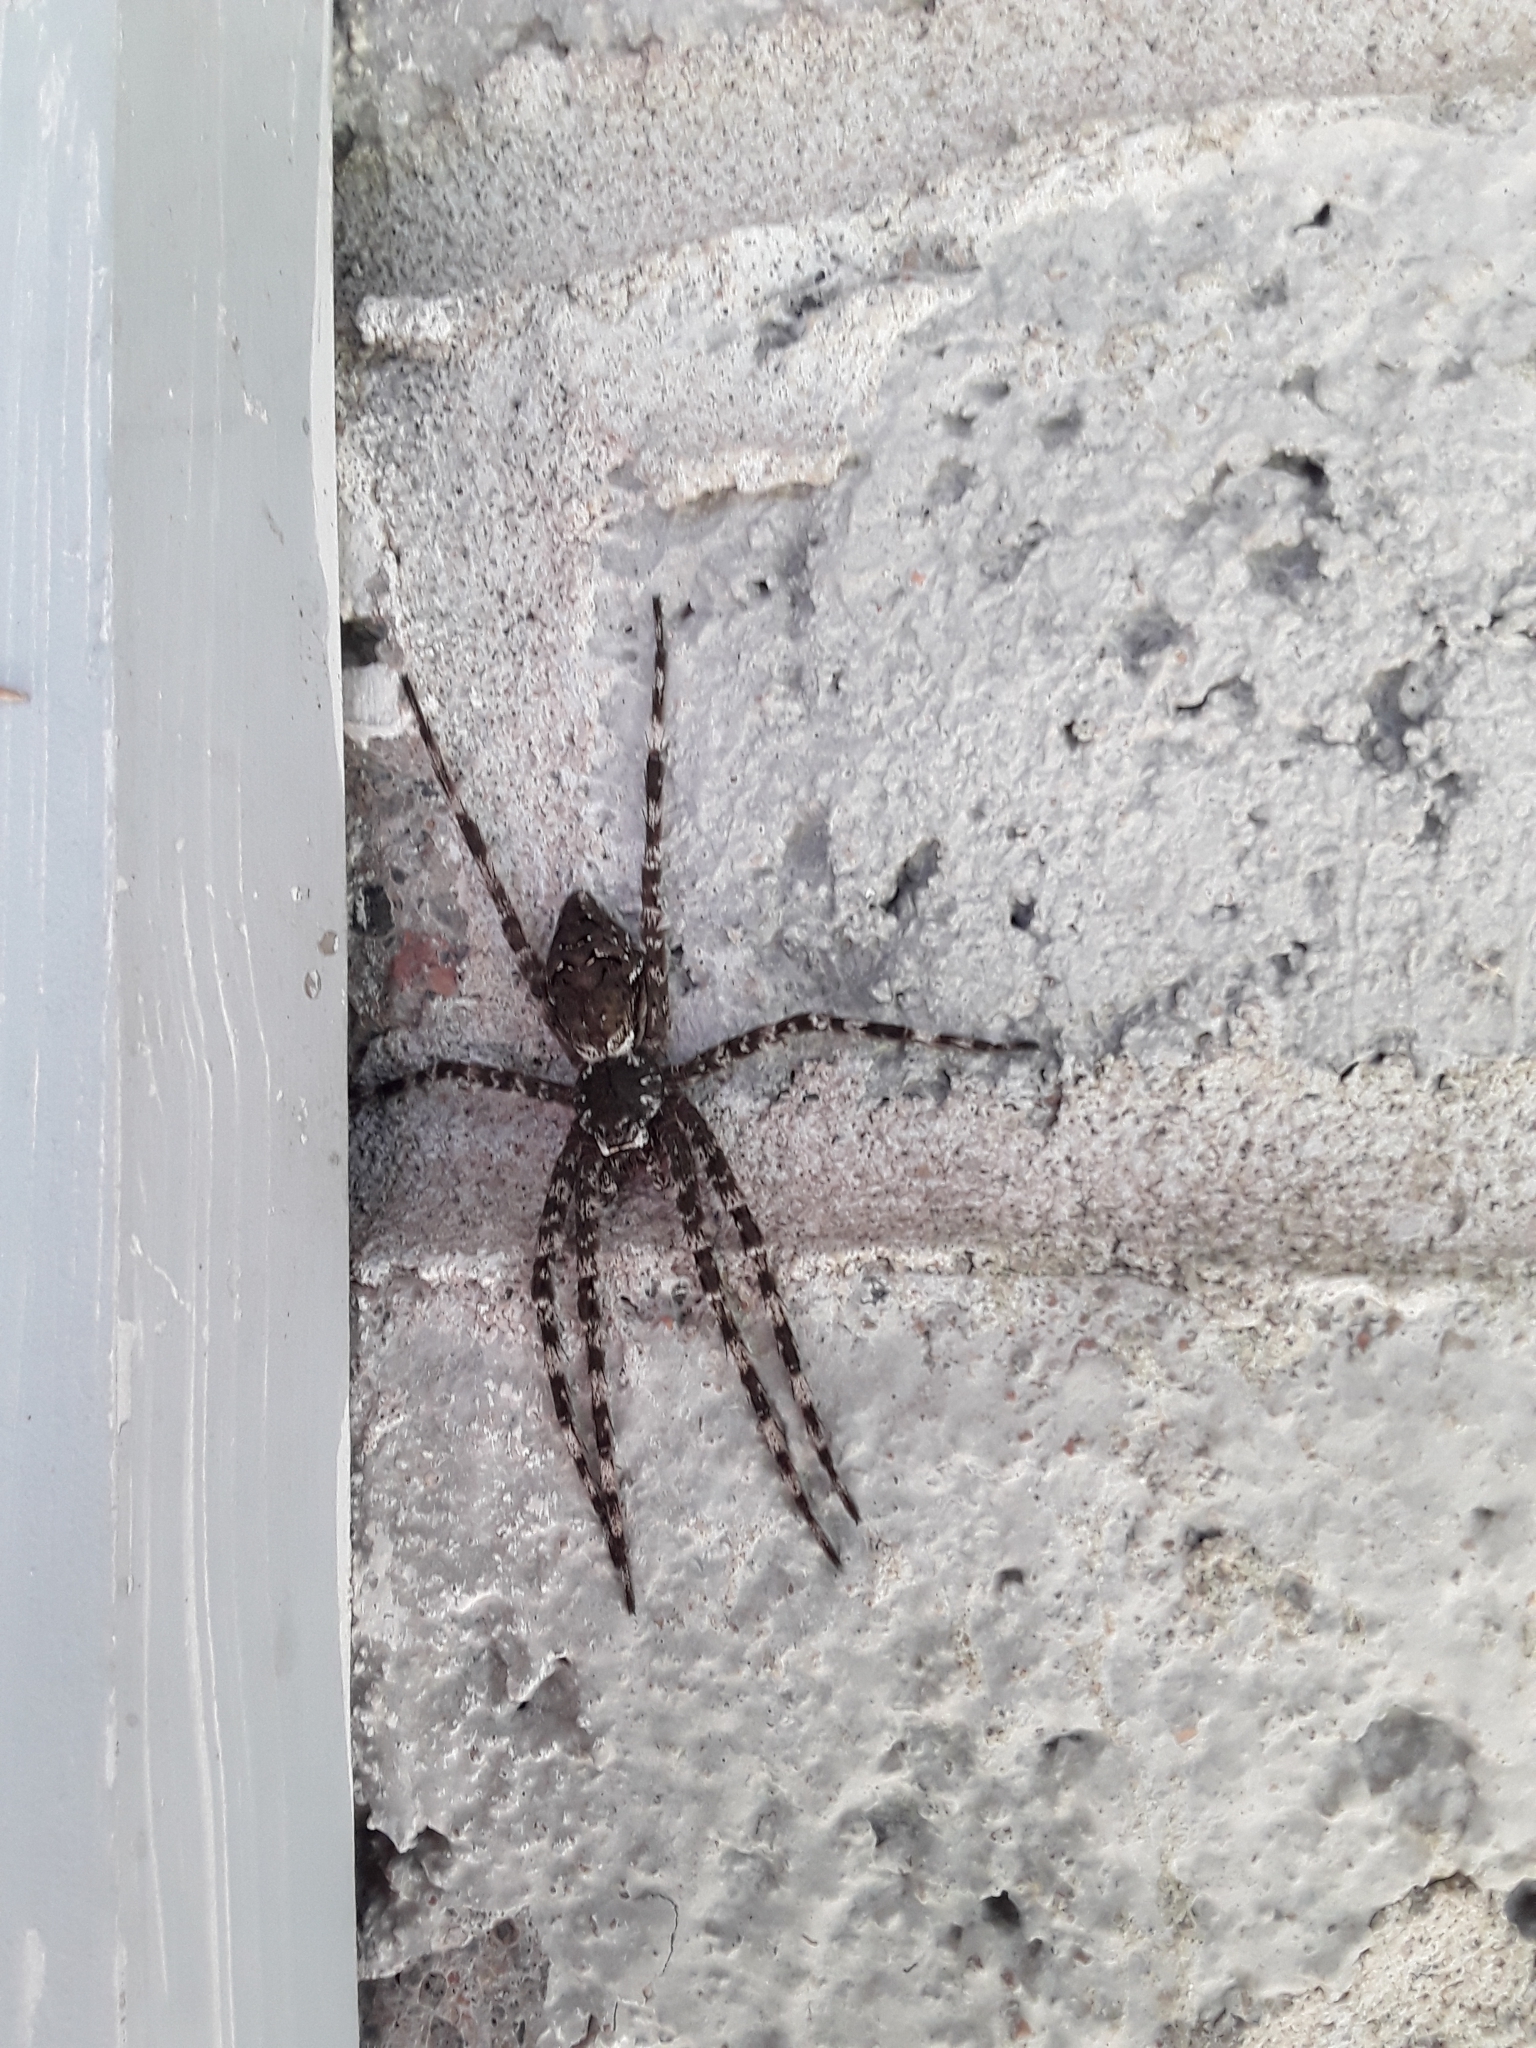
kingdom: Animalia
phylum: Arthropoda
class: Arachnida
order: Araneae
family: Pisauridae
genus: Dolomedes
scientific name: Dolomedes albineus
